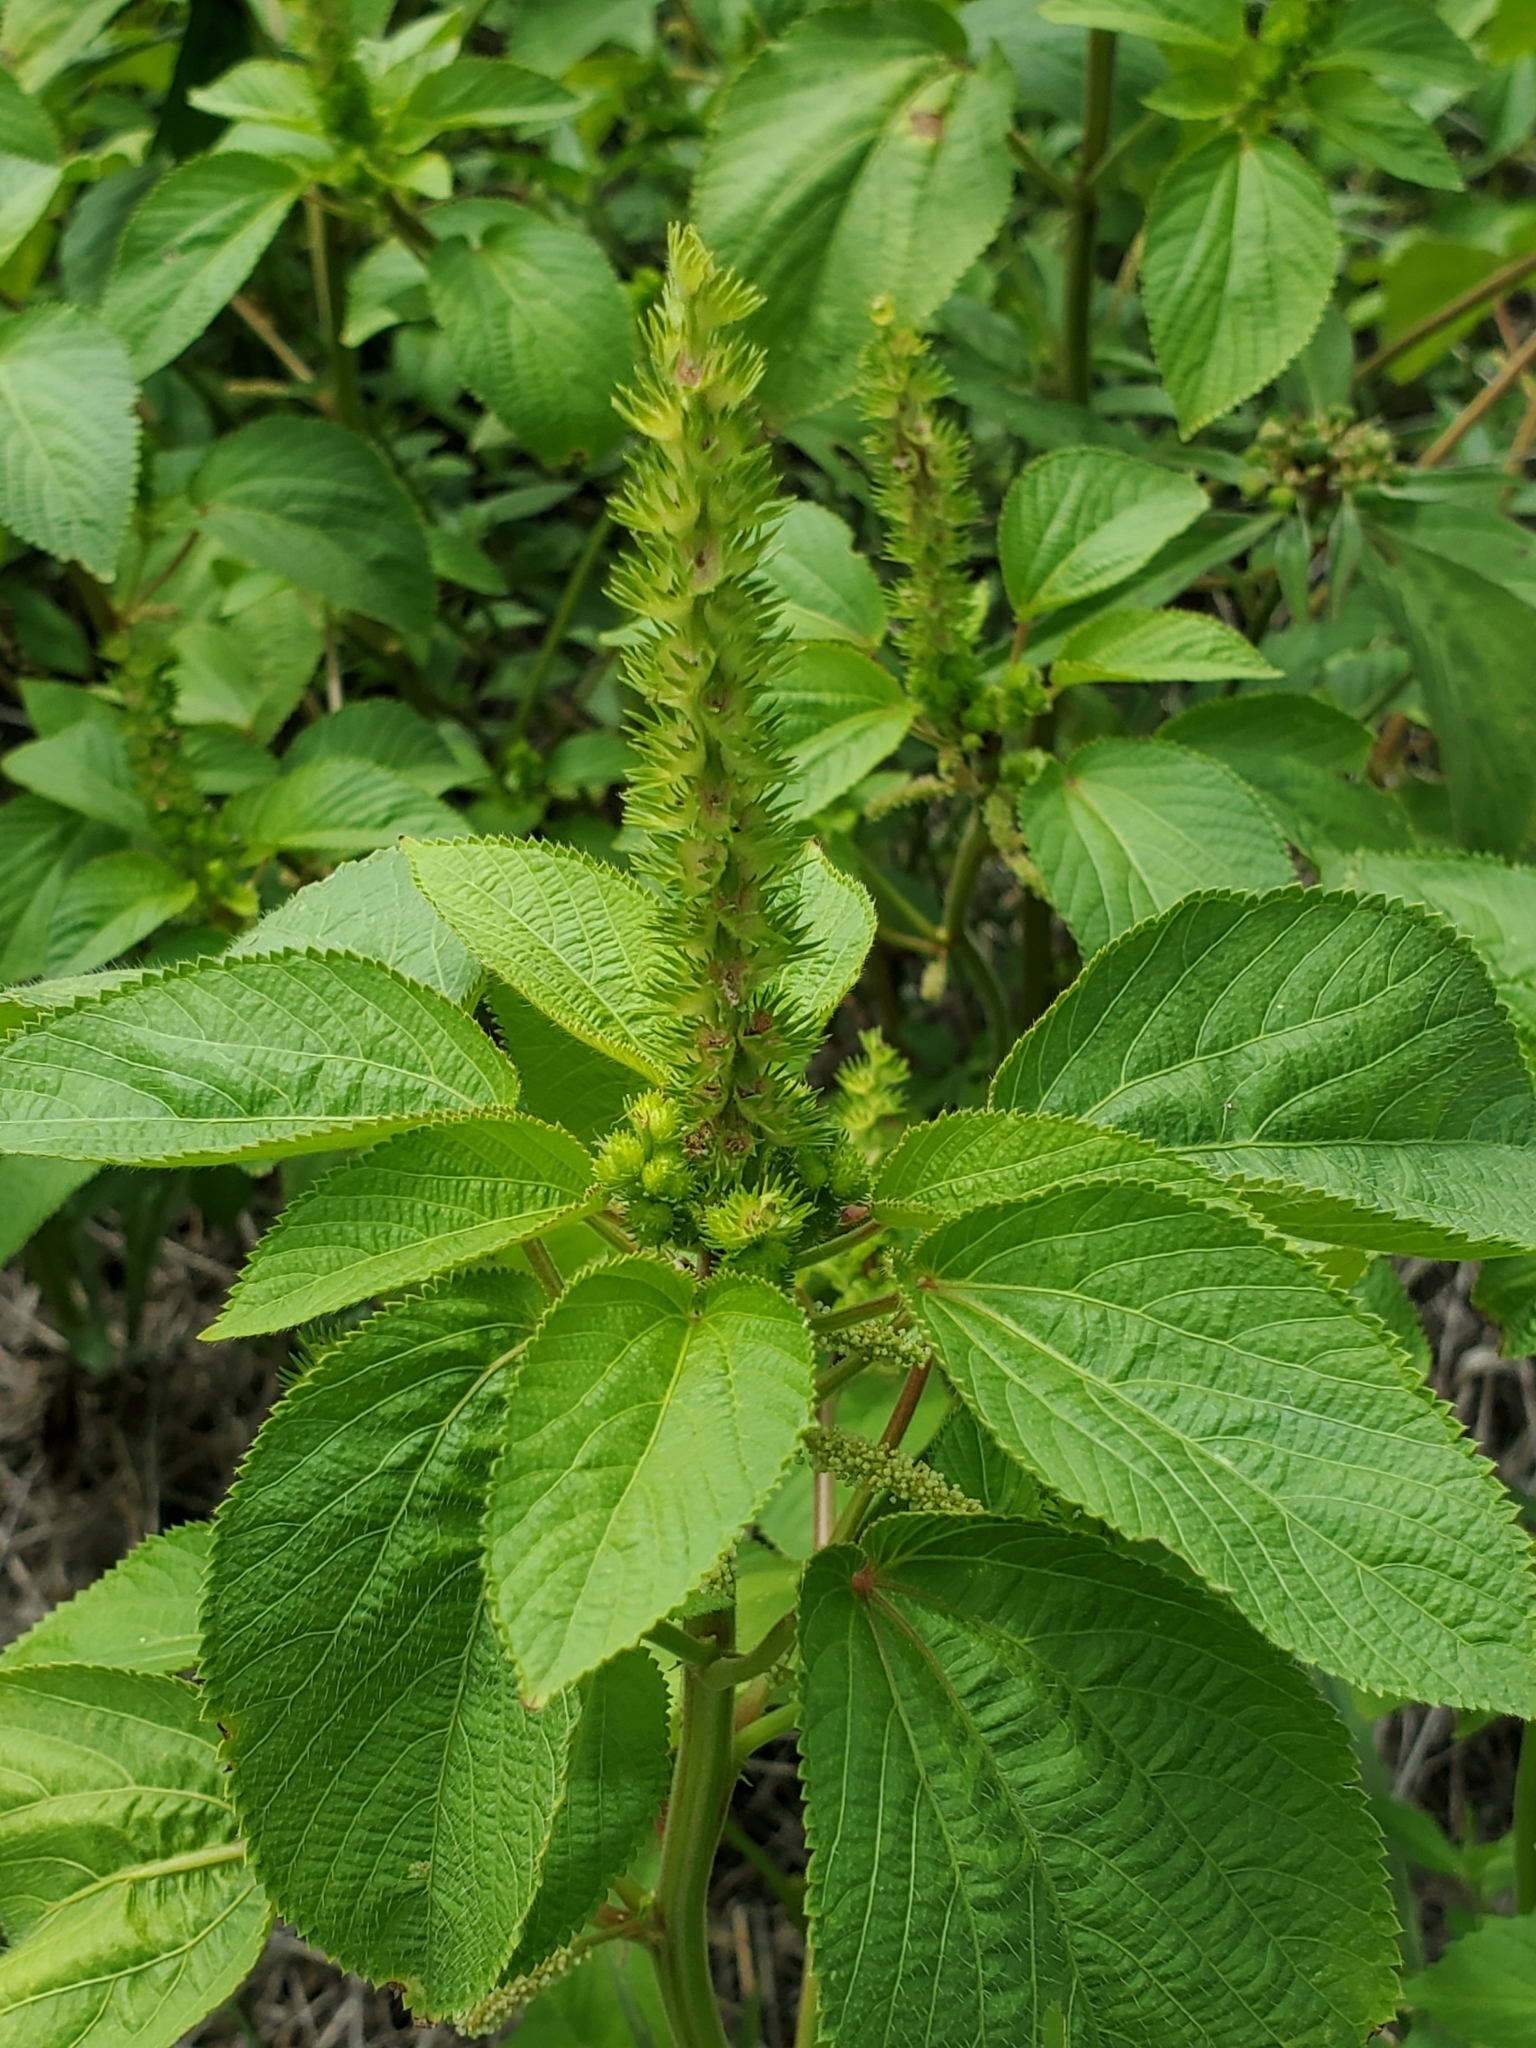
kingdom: Plantae
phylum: Tracheophyta
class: Magnoliopsida
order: Malpighiales
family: Euphorbiaceae
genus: Acalypha
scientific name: Acalypha ostryifolia
